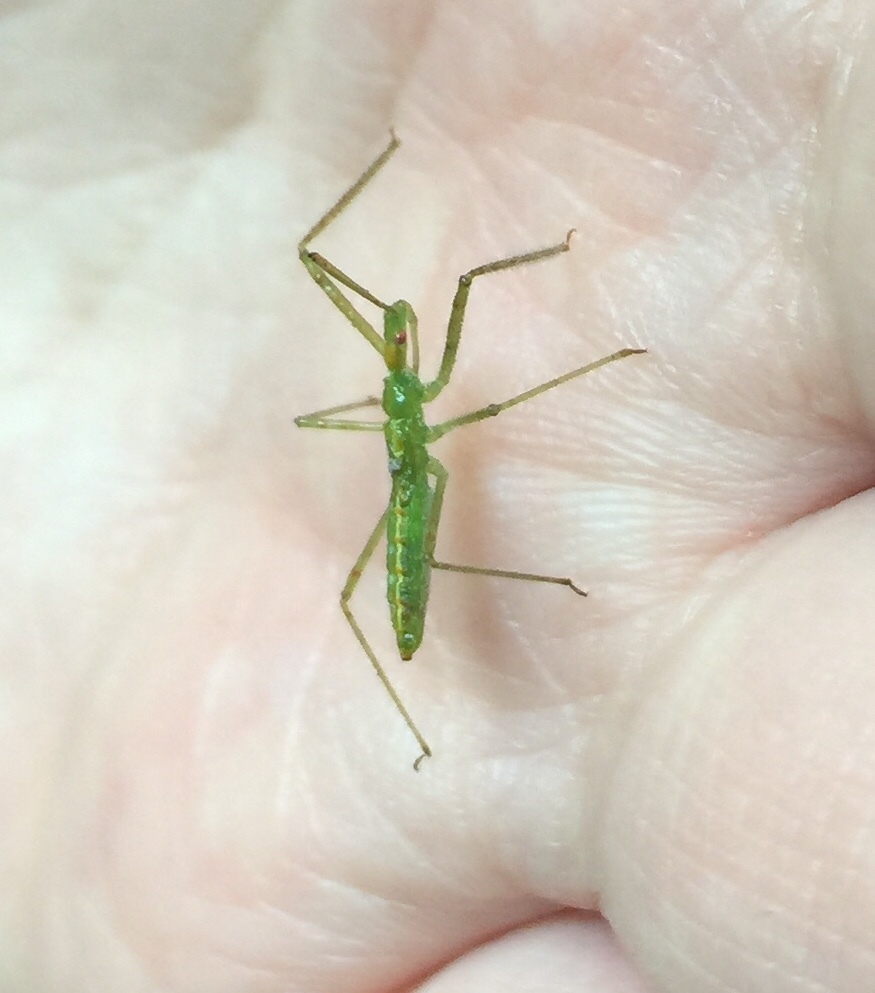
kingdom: Animalia
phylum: Arthropoda
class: Insecta
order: Hemiptera
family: Reduviidae
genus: Zelus
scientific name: Zelus luridus
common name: Pale green assassin bug
